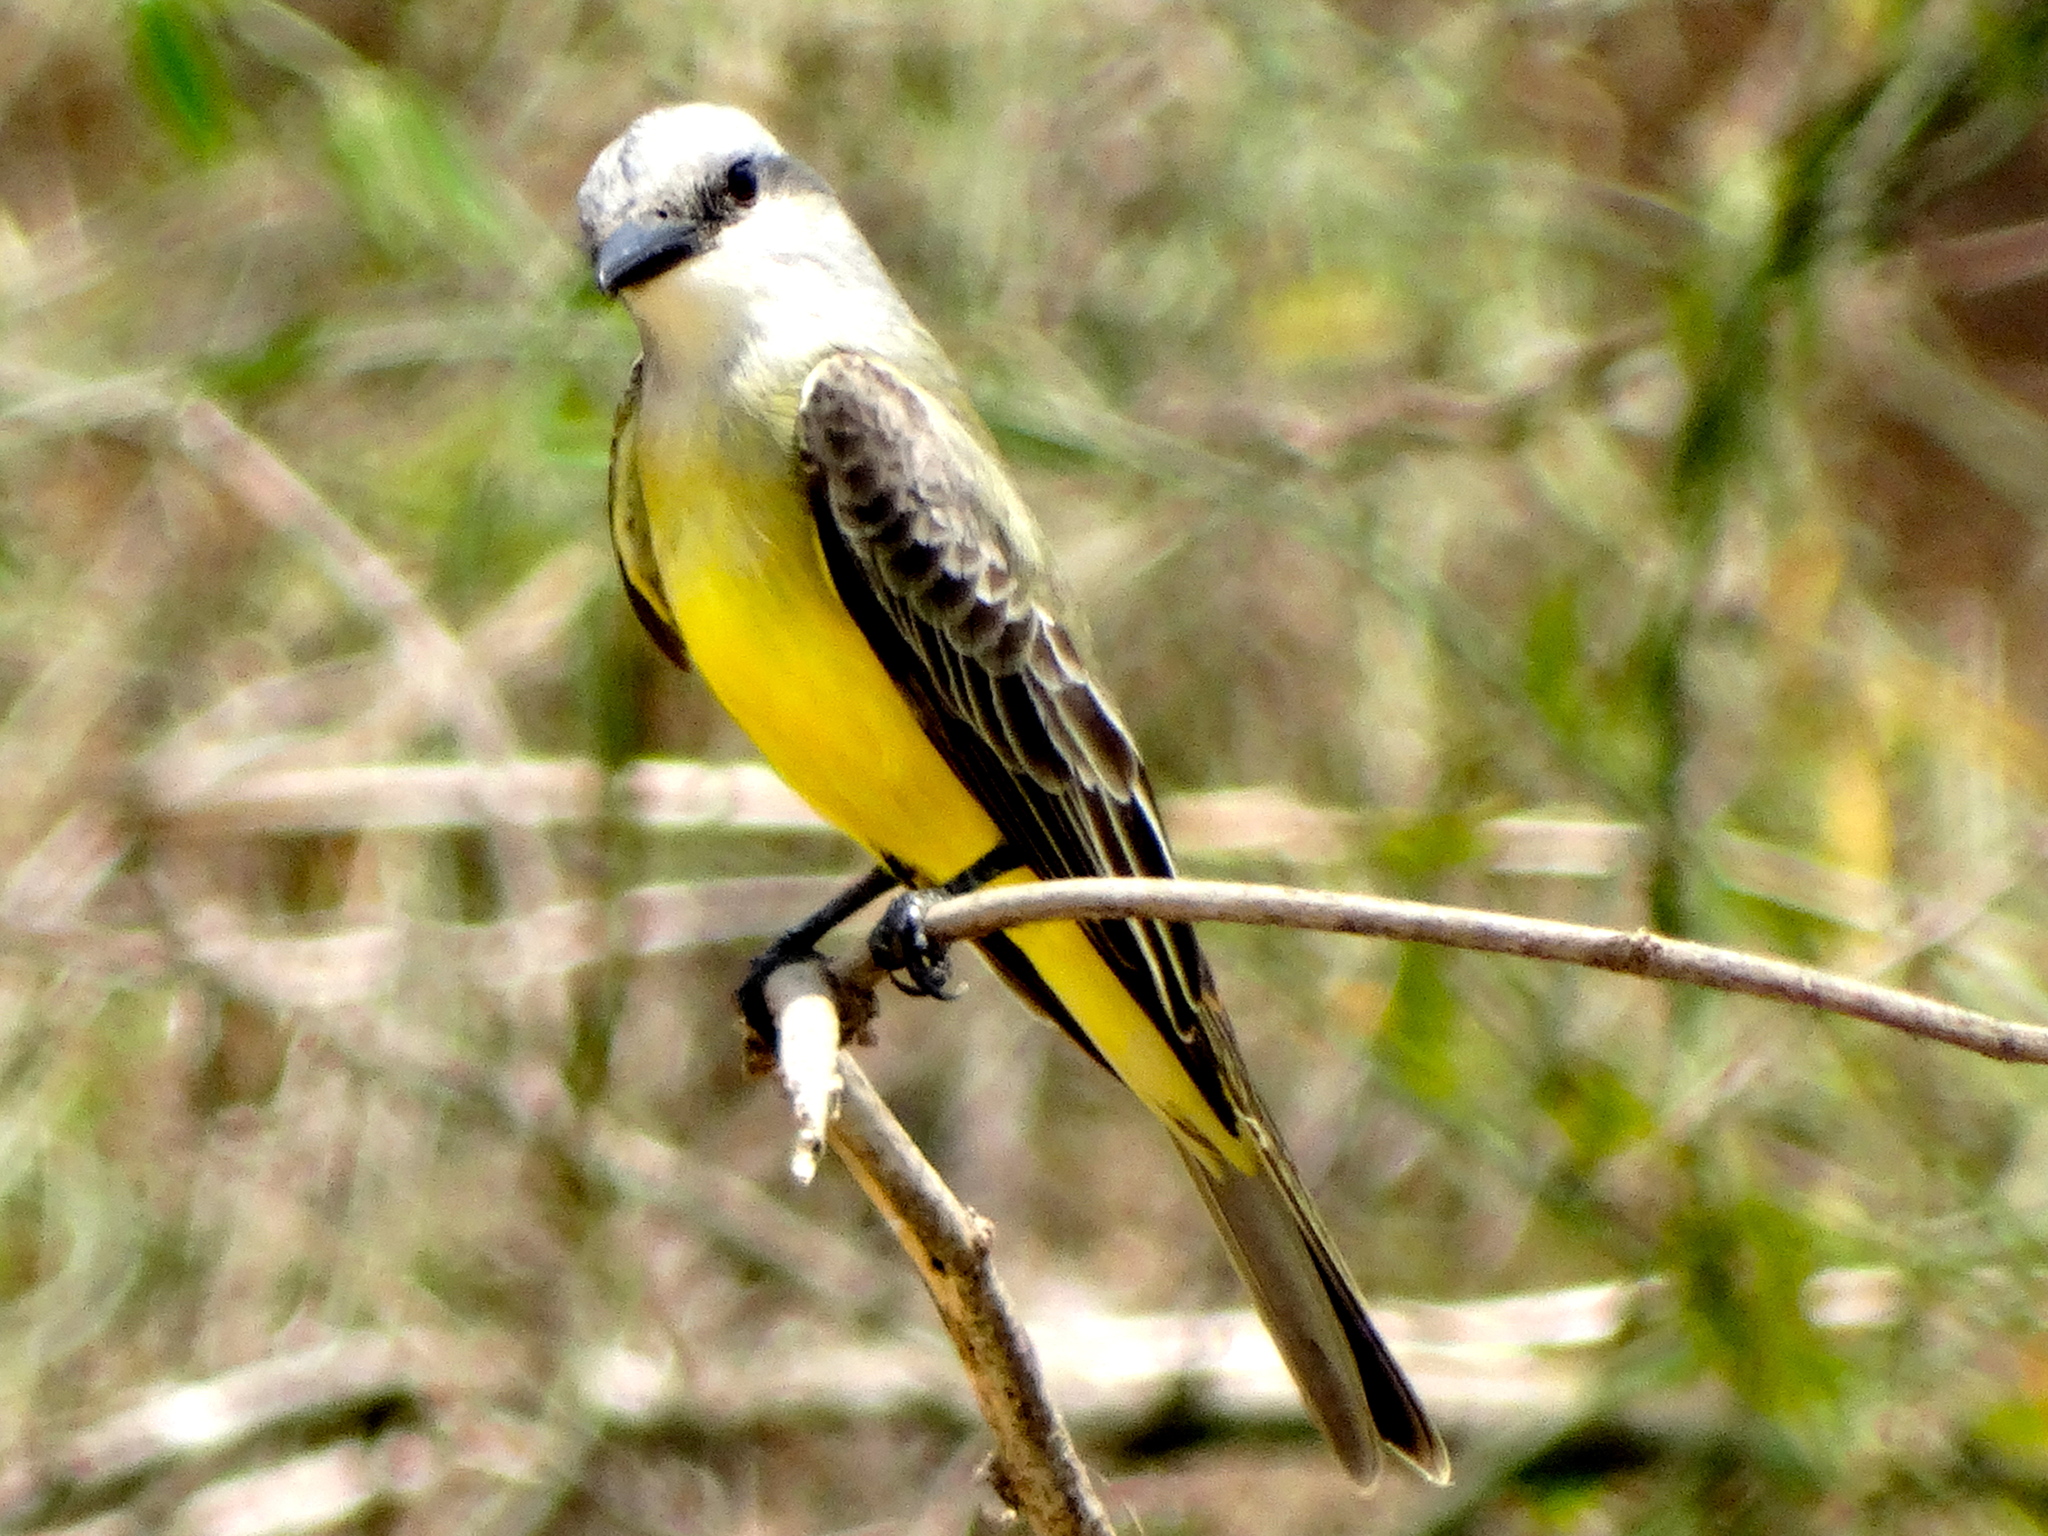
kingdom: Animalia
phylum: Chordata
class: Aves
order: Passeriformes
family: Tyrannidae
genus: Tyrannus
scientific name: Tyrannus melancholicus
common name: Tropical kingbird
